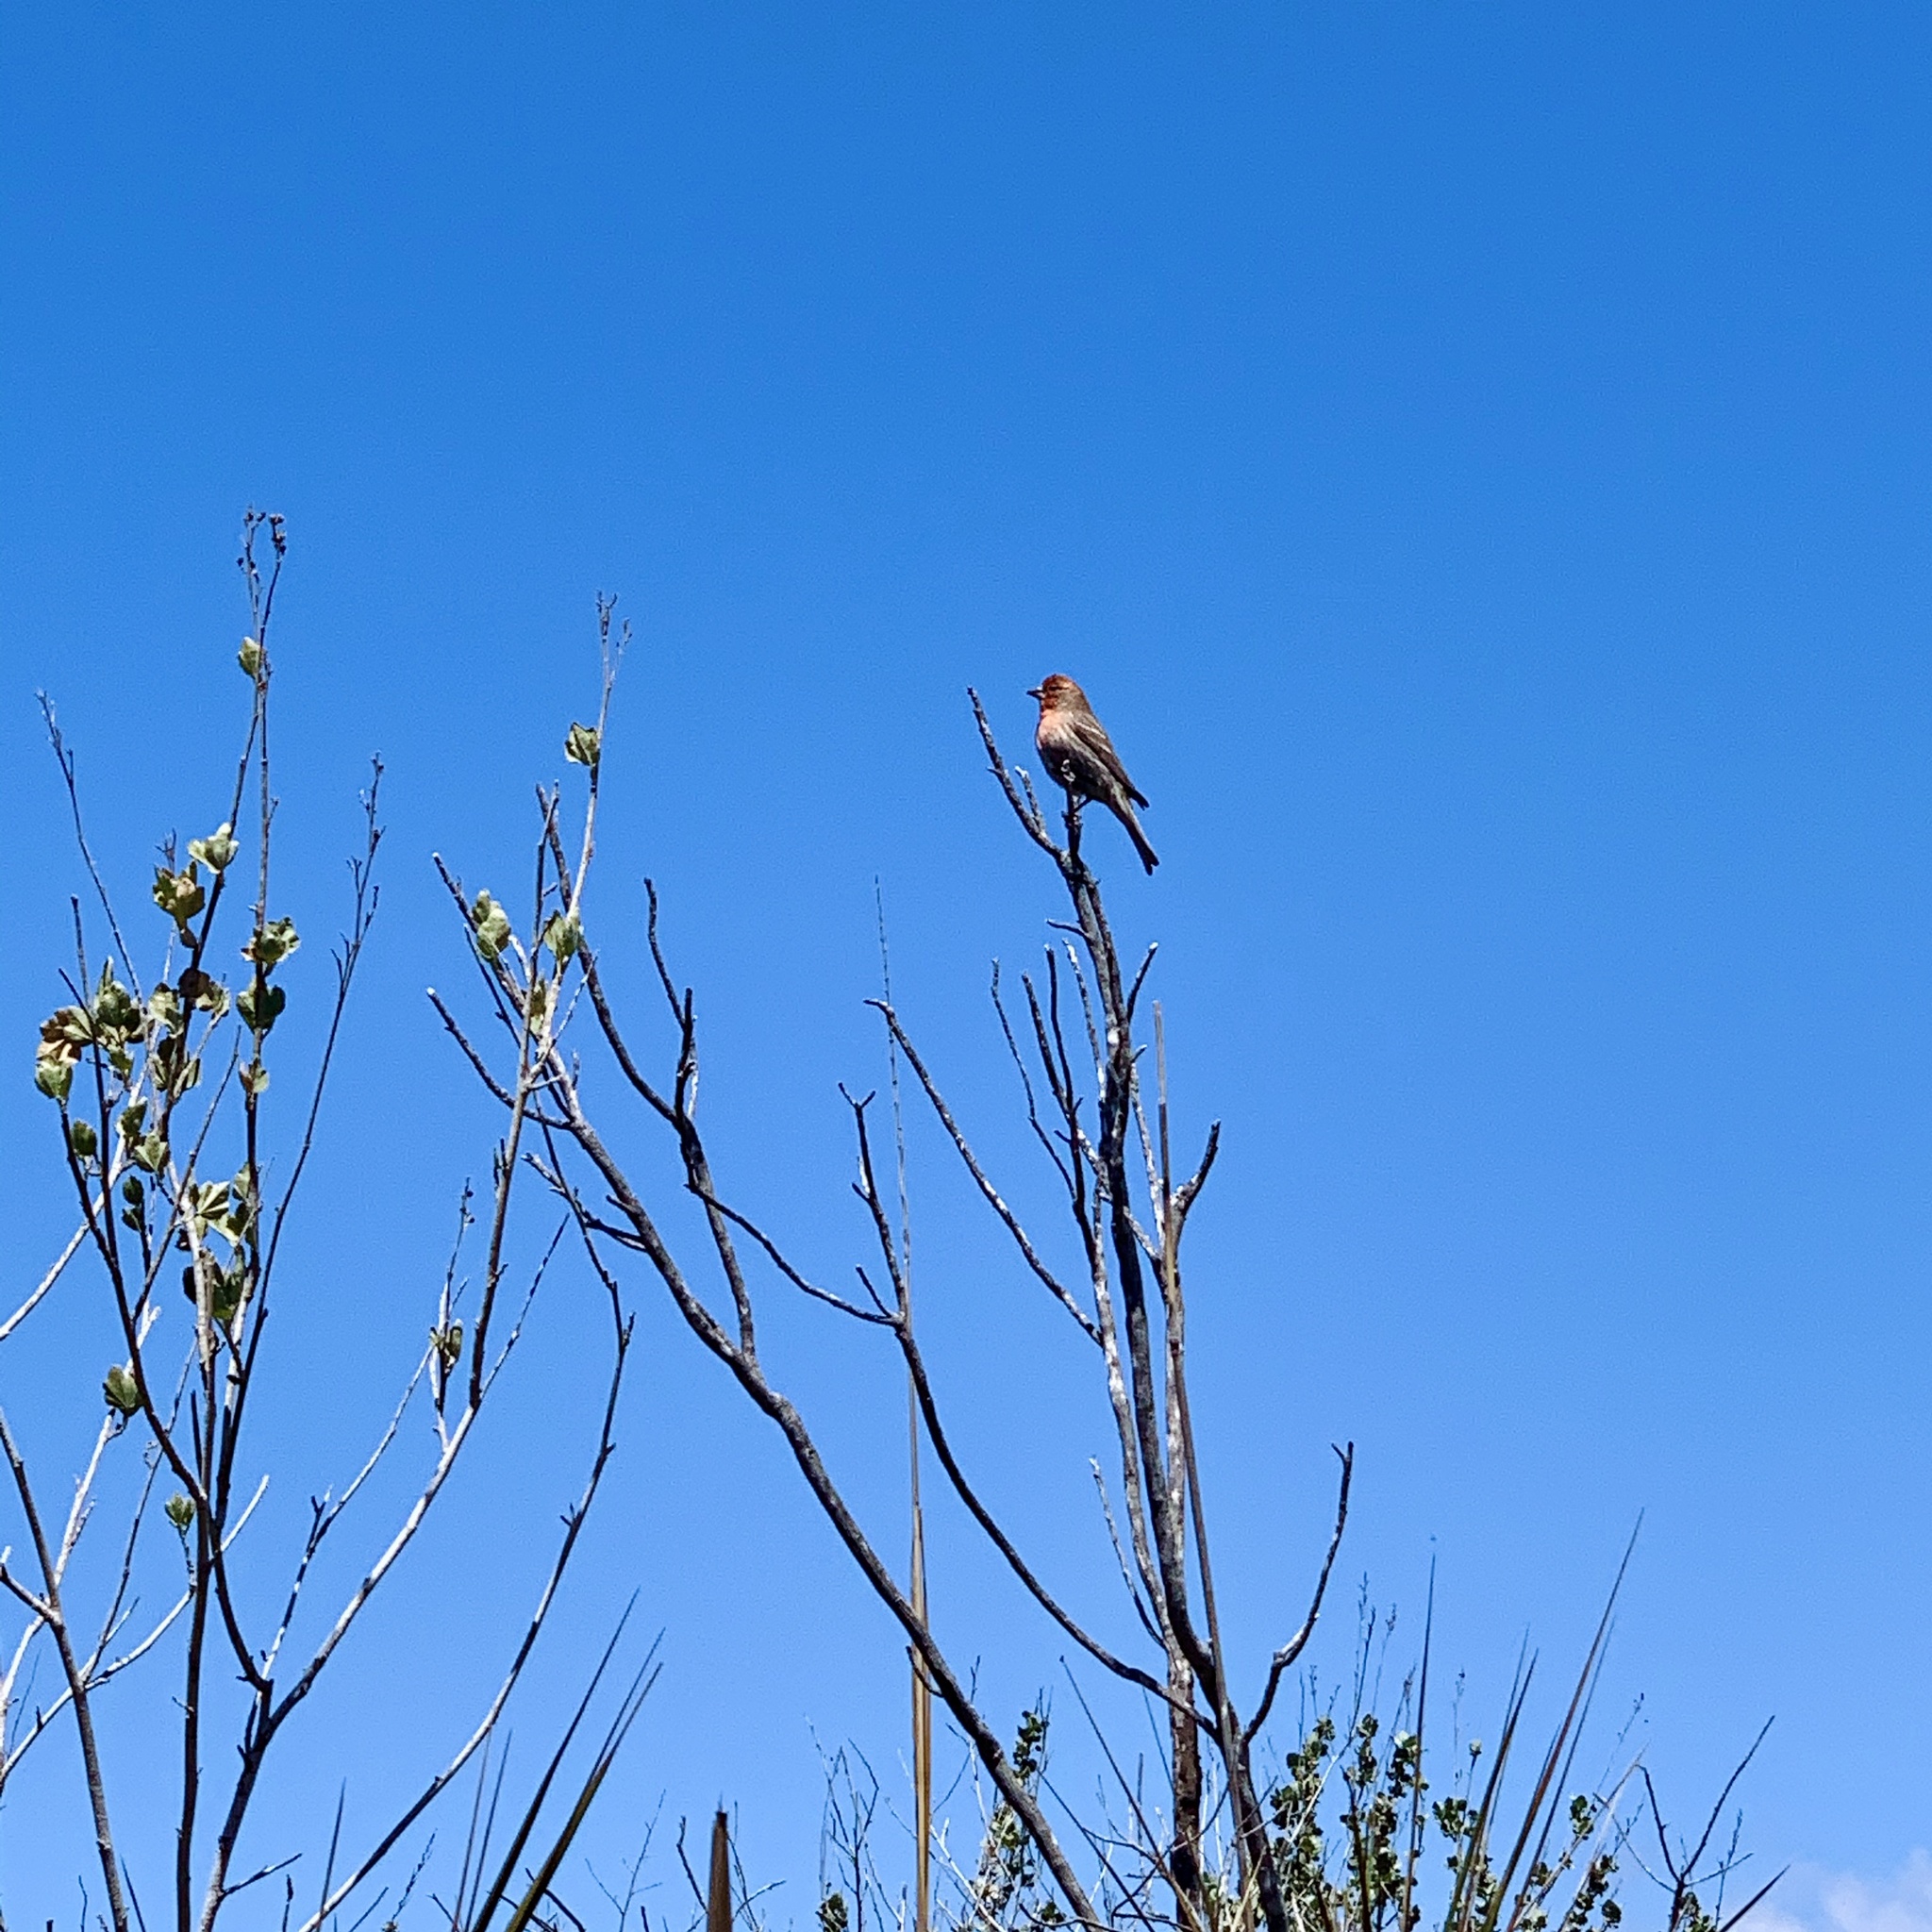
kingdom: Animalia
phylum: Chordata
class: Aves
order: Passeriformes
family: Fringillidae
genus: Haemorhous
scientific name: Haemorhous mexicanus
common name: House finch
